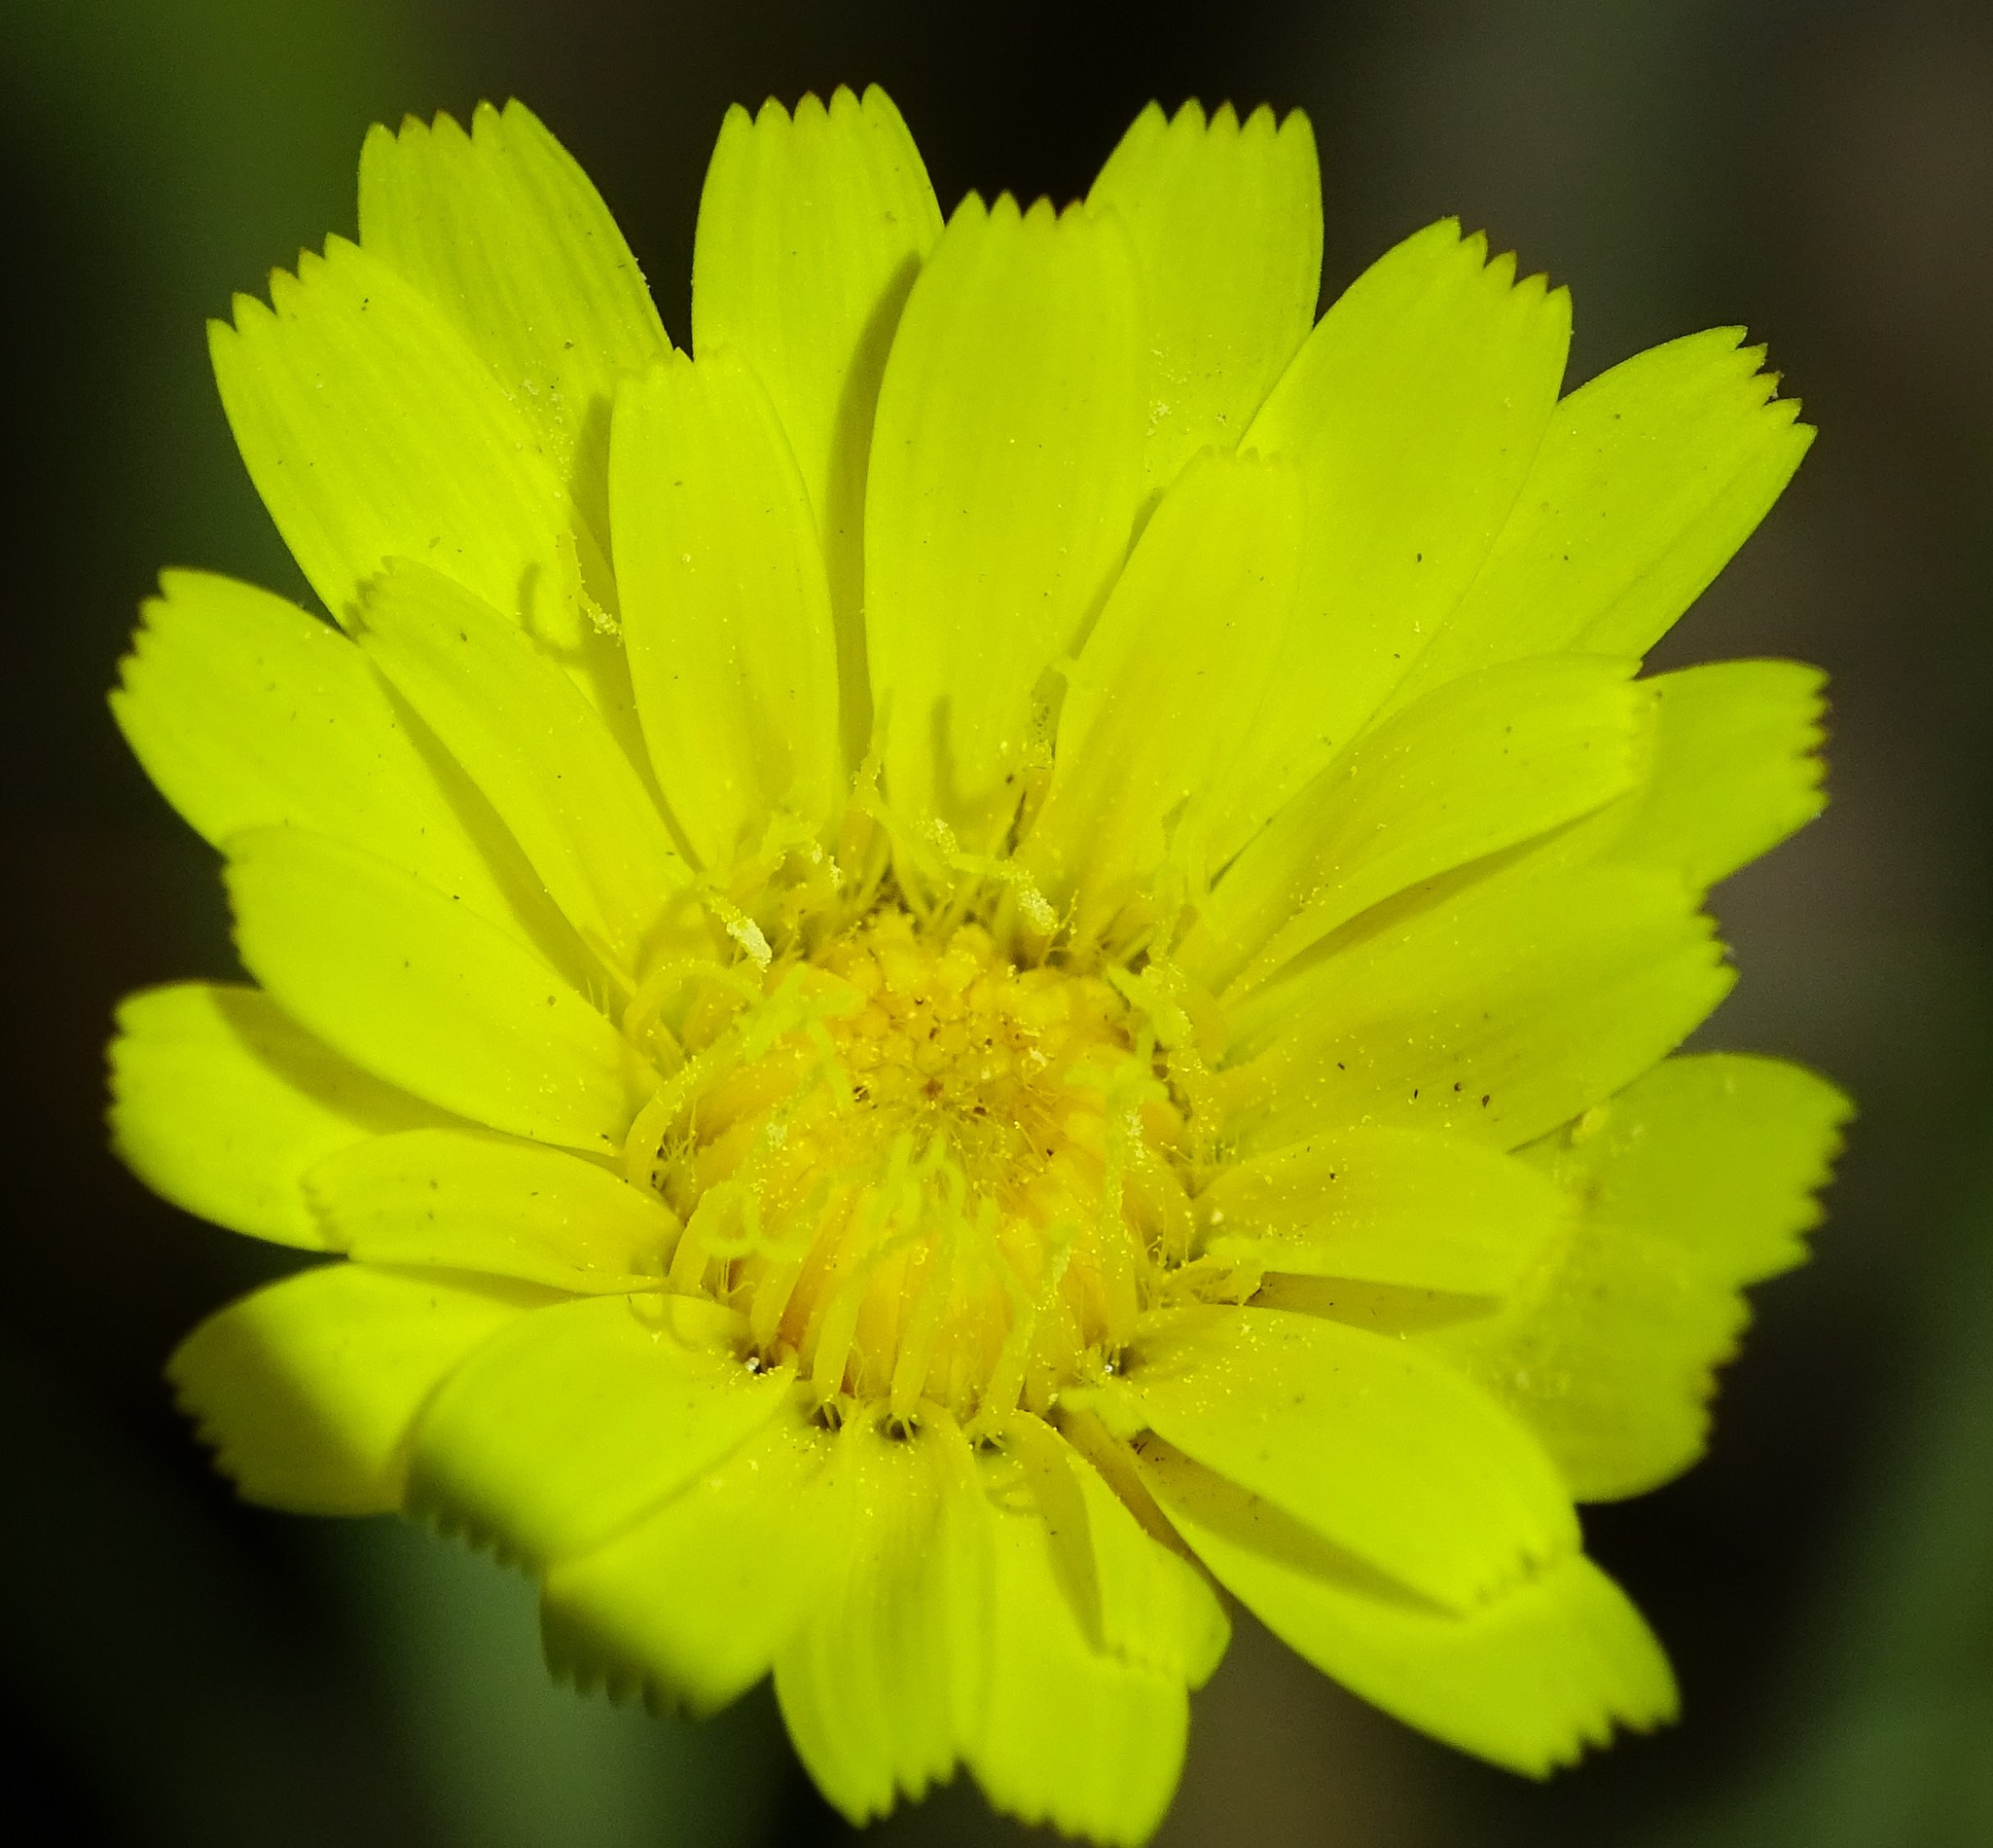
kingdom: Plantae
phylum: Tracheophyta
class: Magnoliopsida
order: Asterales
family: Asteraceae
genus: Malacothrix
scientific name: Malacothrix glabrata
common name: Smooth desert-dandelion
